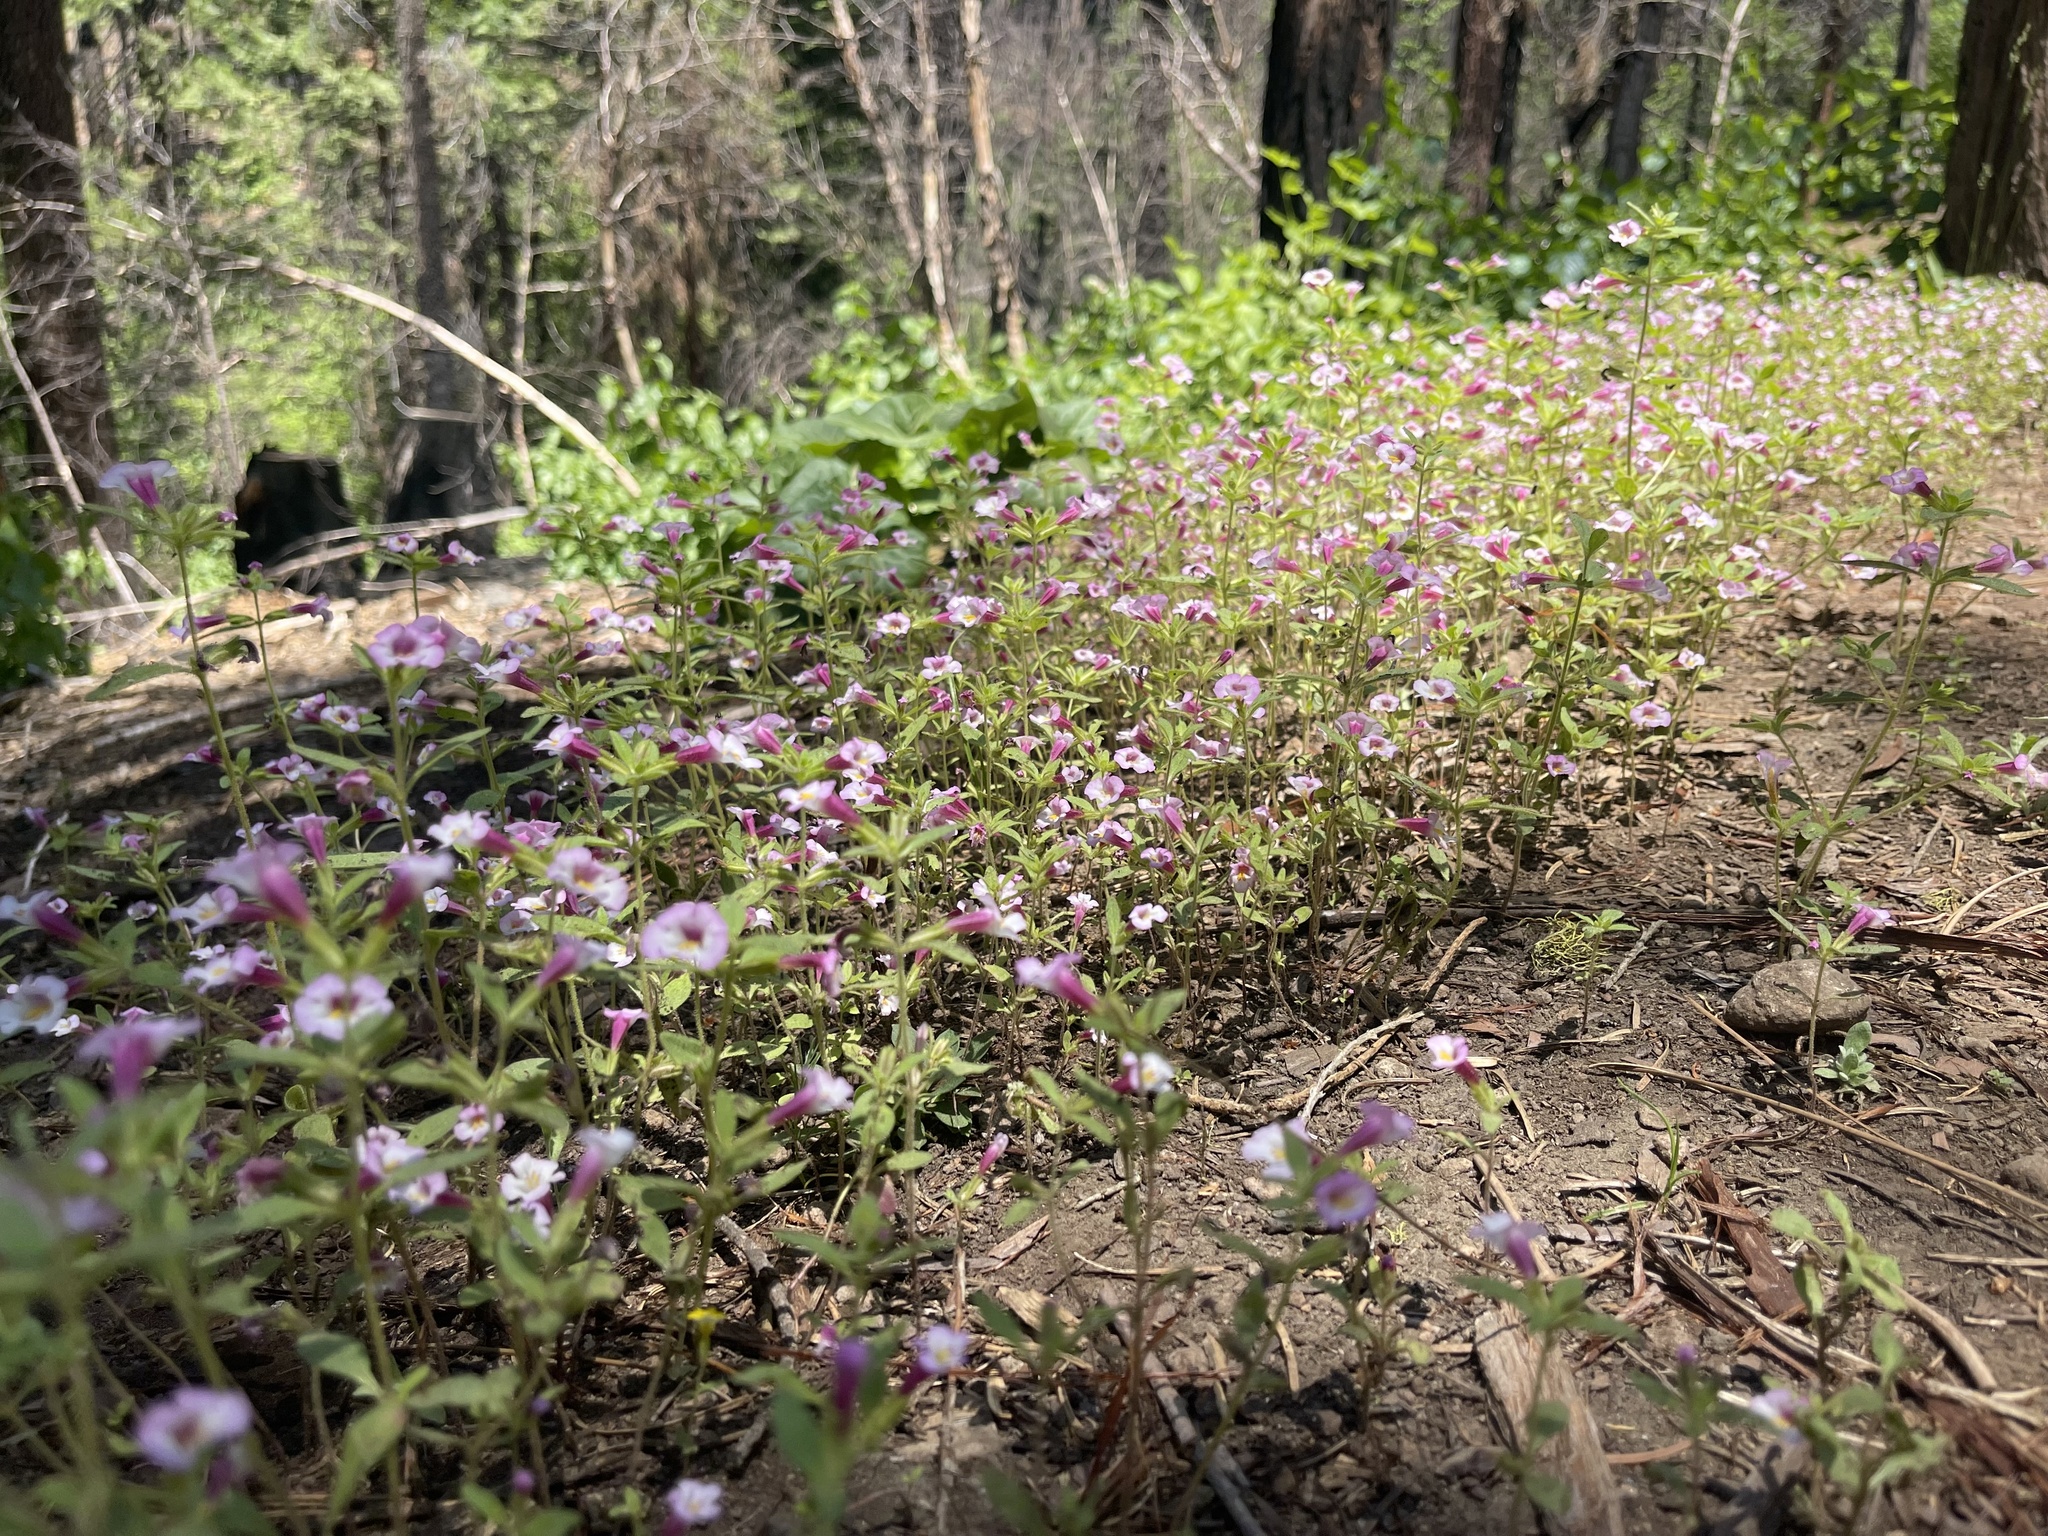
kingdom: Plantae
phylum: Tracheophyta
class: Magnoliopsida
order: Lamiales
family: Phrymaceae
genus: Diplacus
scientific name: Diplacus torreyi
